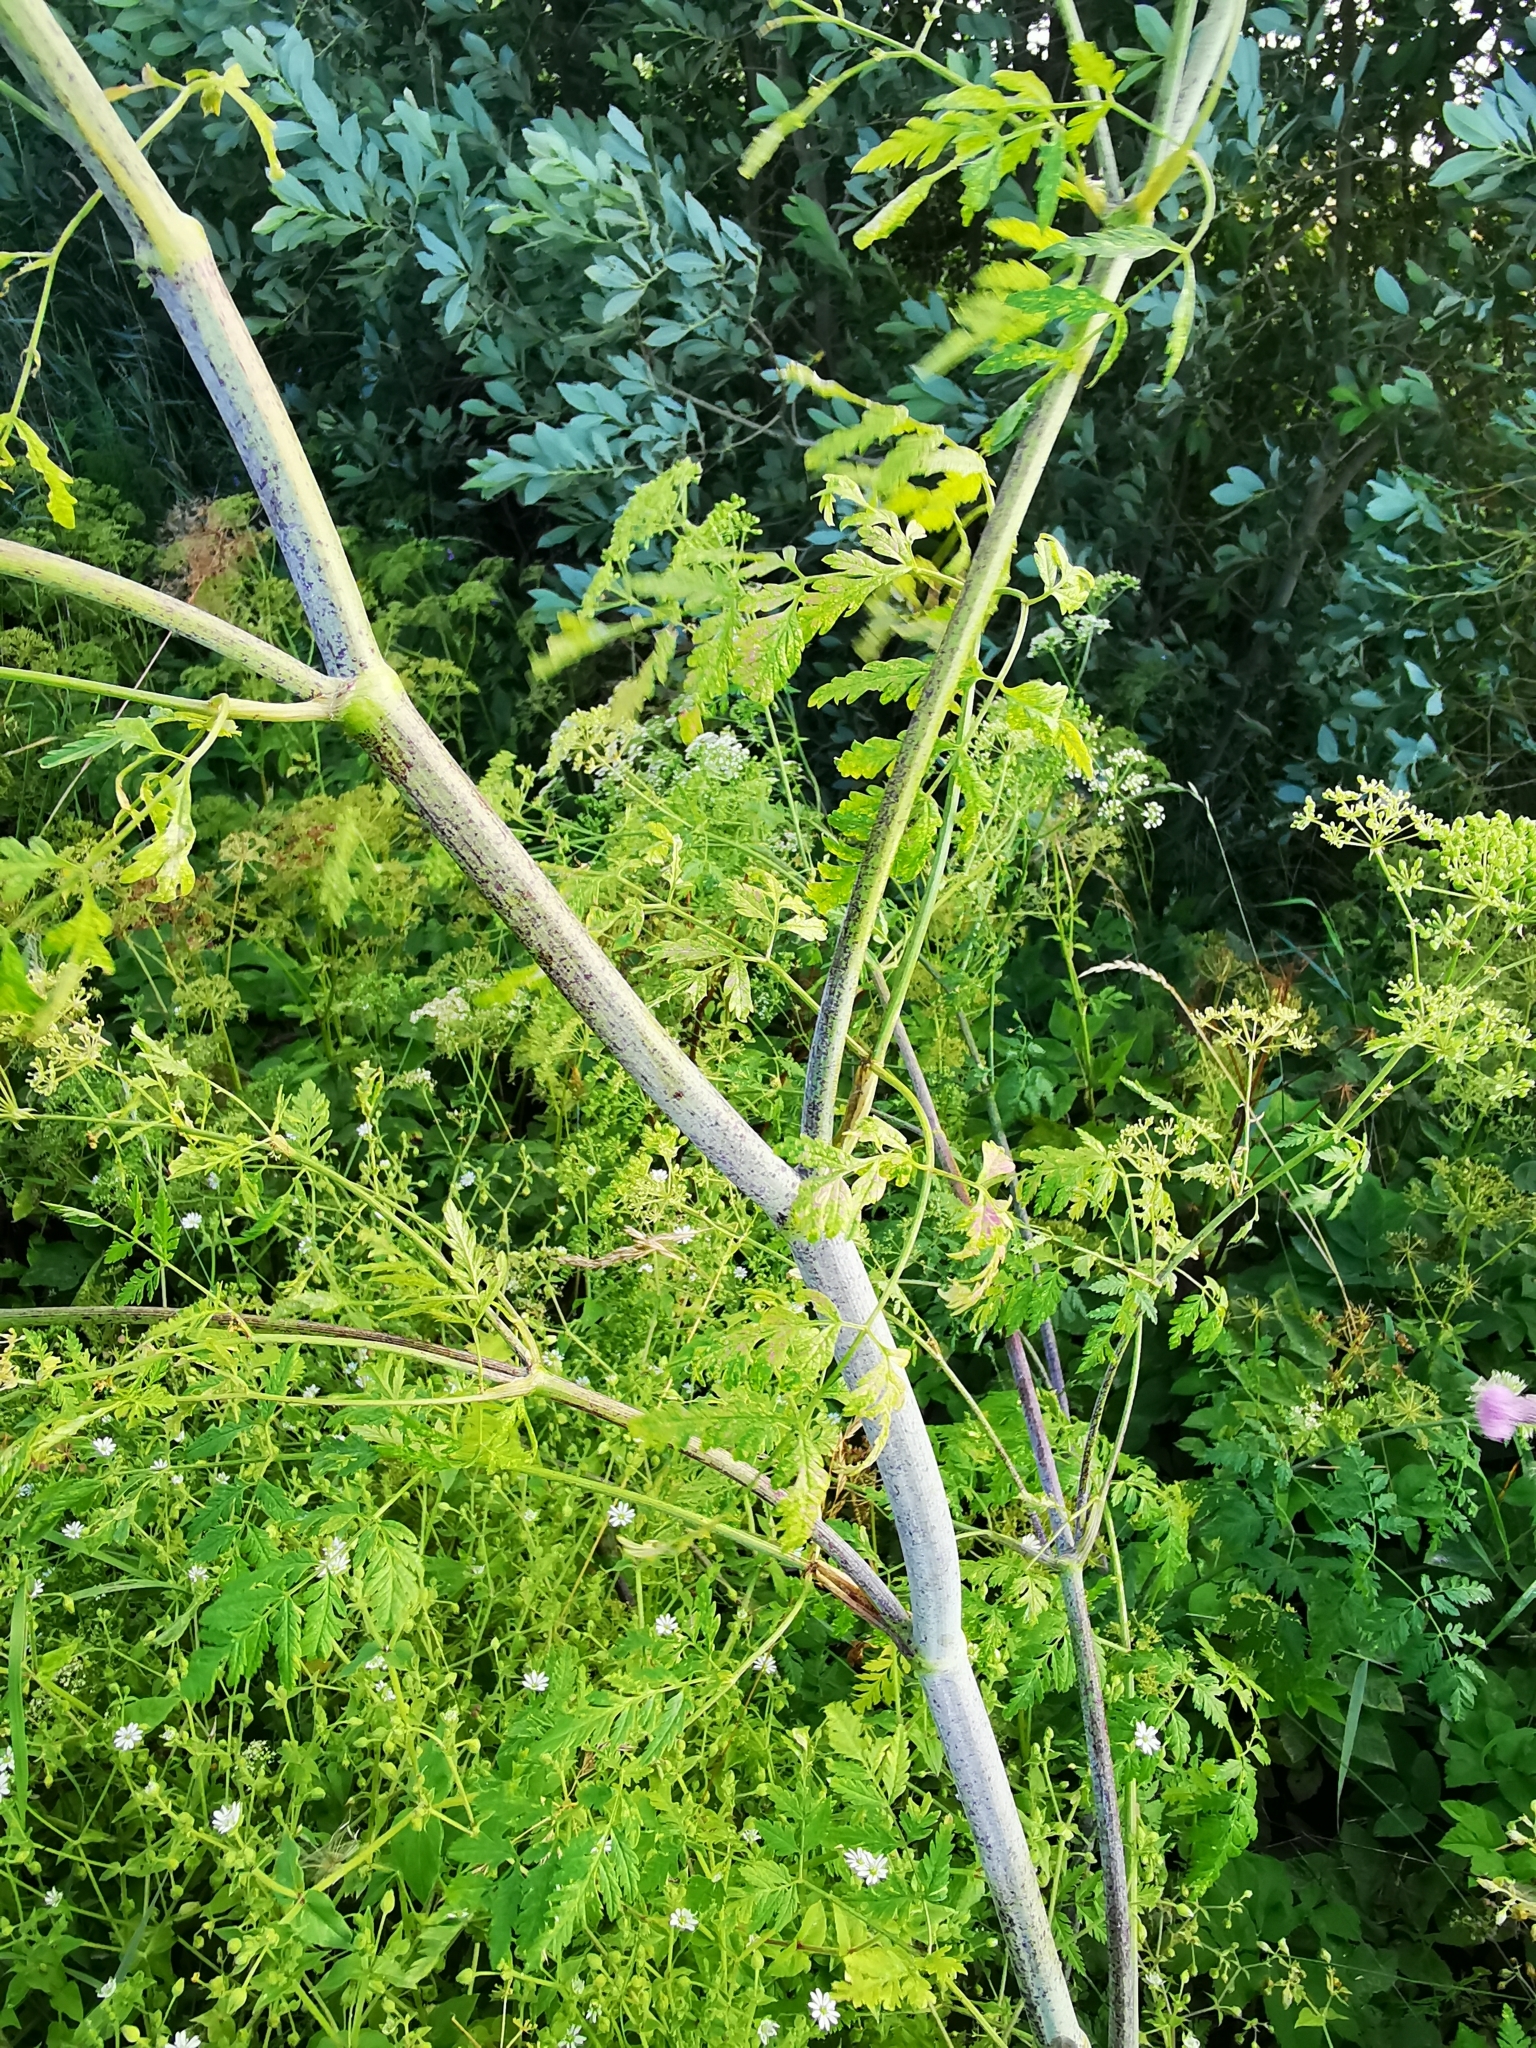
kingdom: Plantae
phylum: Tracheophyta
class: Magnoliopsida
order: Apiales
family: Apiaceae
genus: Conium
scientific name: Conium maculatum
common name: Hemlock
